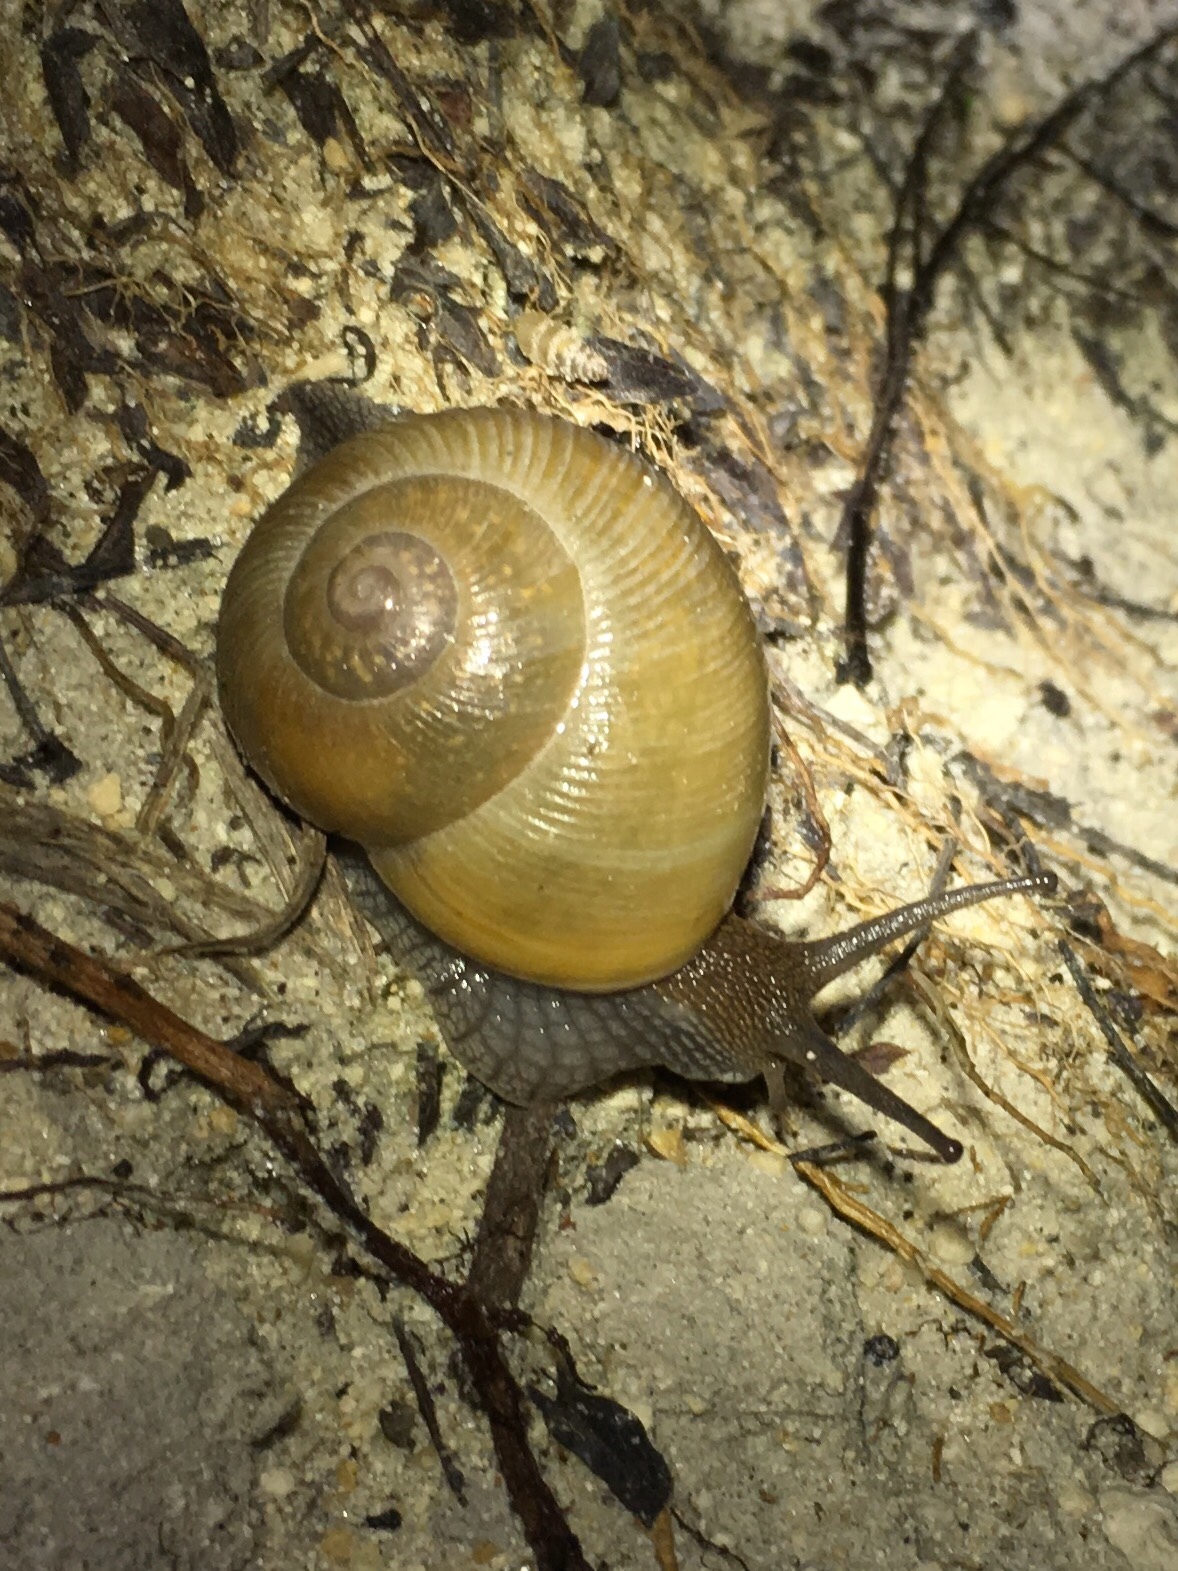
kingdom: Animalia
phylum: Mollusca
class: Gastropoda
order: Stylommatophora
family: Zachrysiidae
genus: Zachrysia
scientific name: Zachrysia provisoria
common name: Garden zachrysia
